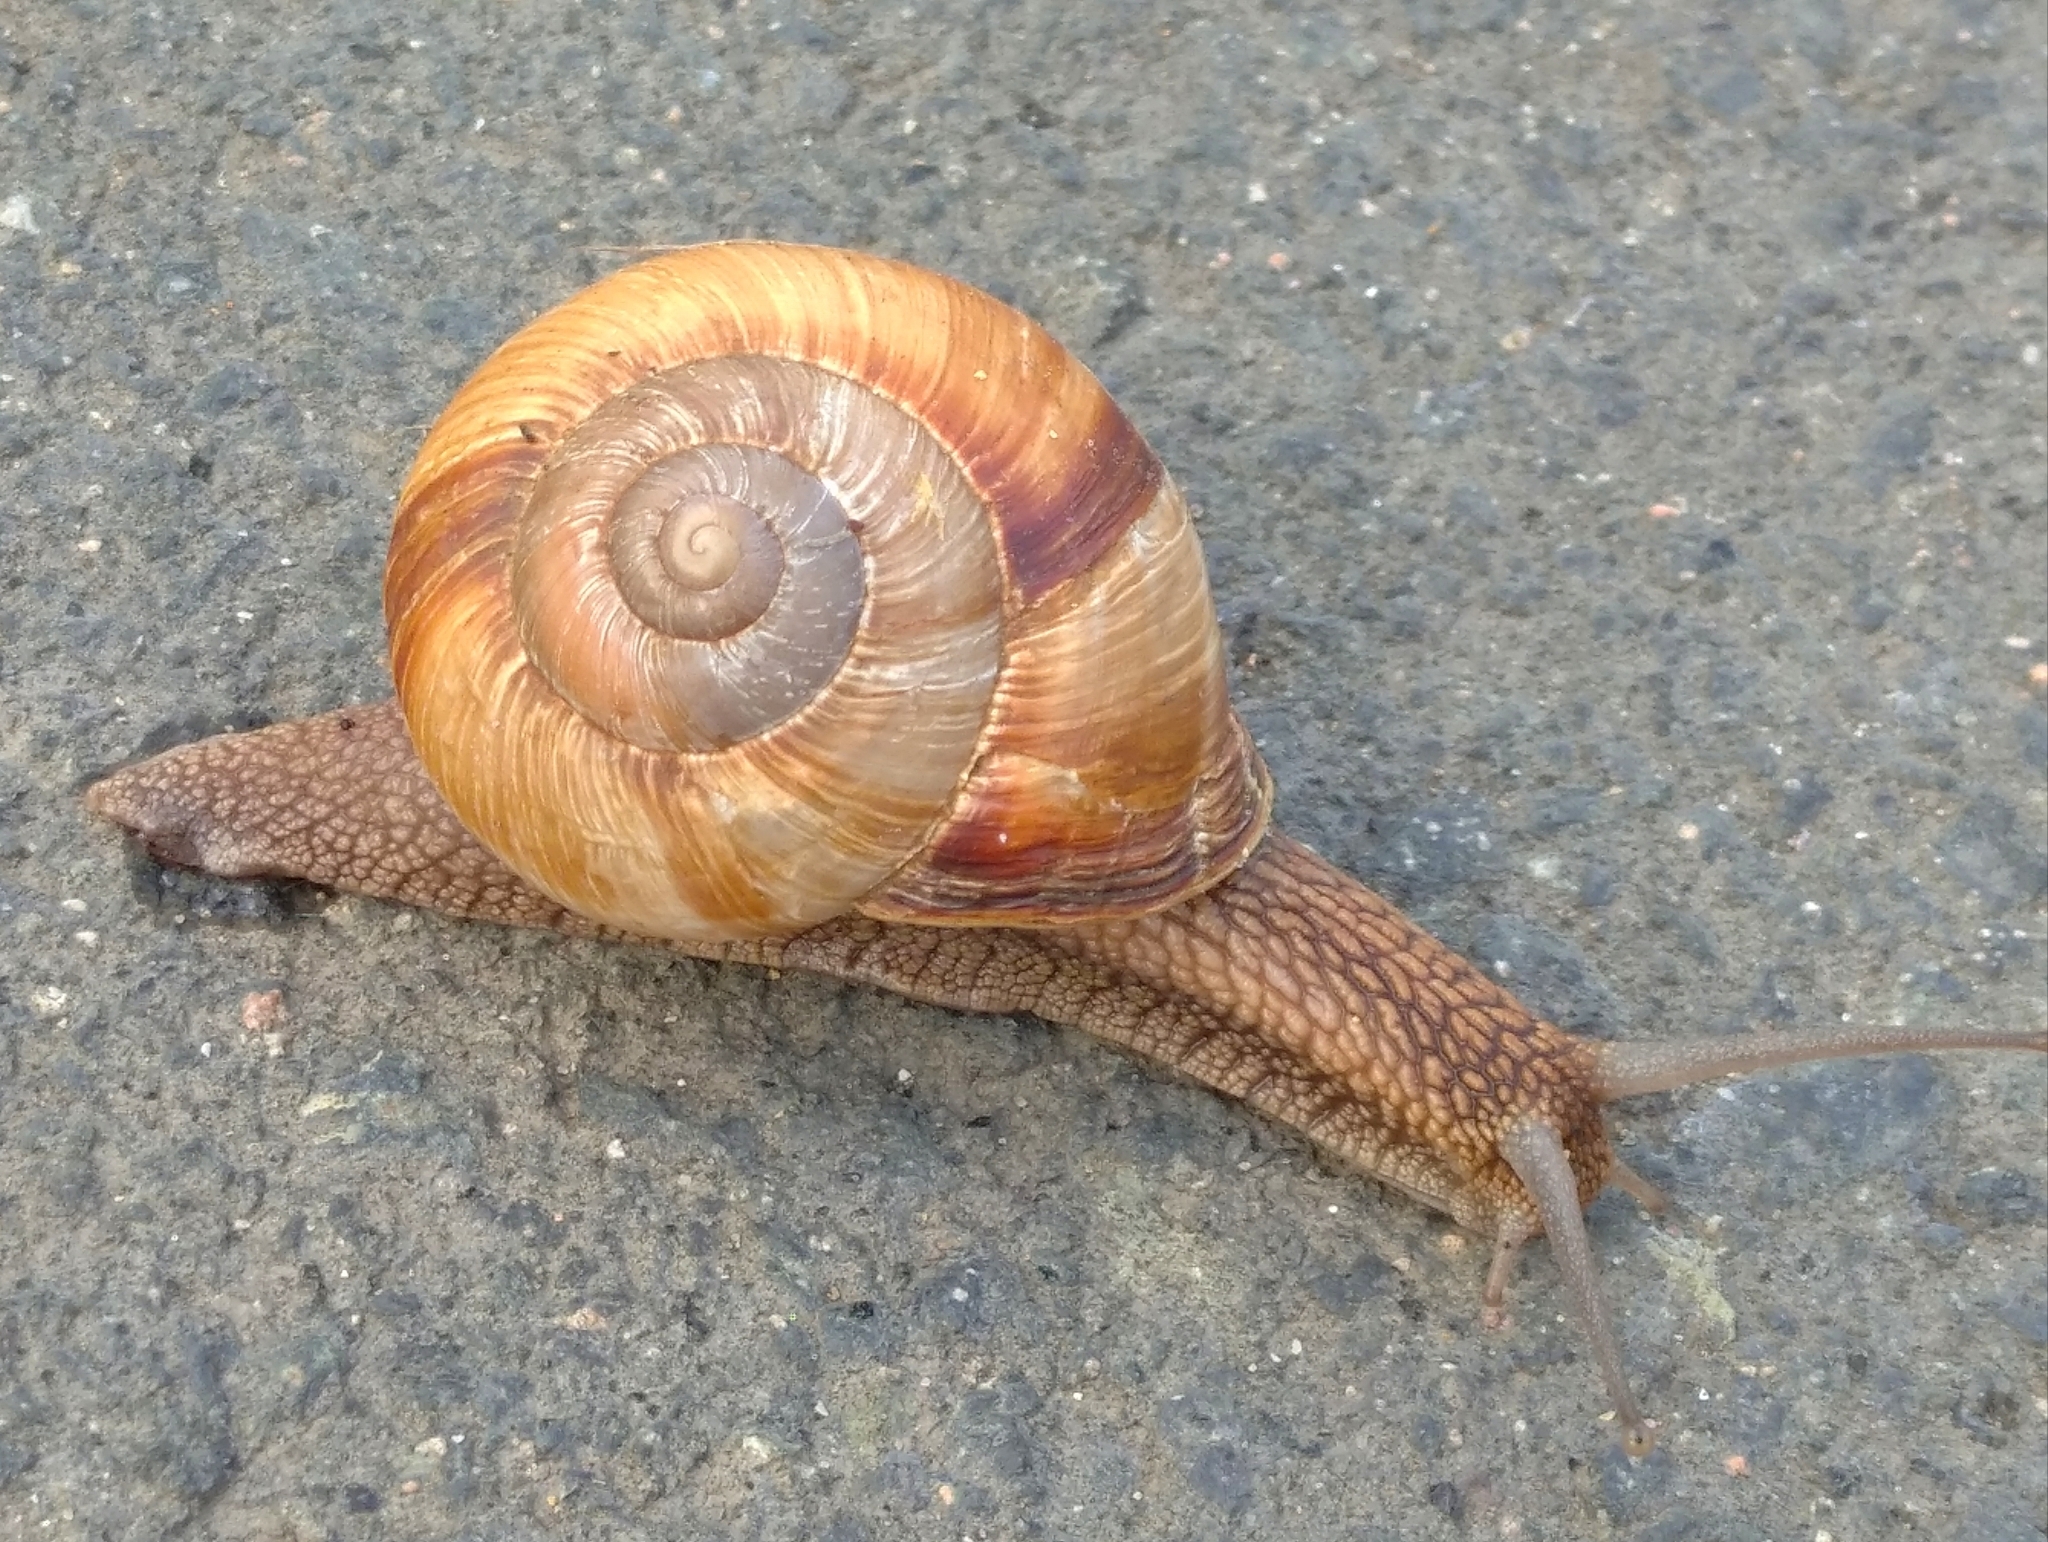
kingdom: Animalia
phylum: Mollusca
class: Gastropoda
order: Stylommatophora
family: Helicidae
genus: Helix
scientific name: Helix lucorum
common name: Turkish snail
